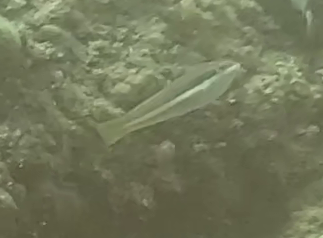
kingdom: Animalia
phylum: Chordata
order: Perciformes
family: Labridae
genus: Coris
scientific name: Coris julis
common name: Rainbow wrasse
